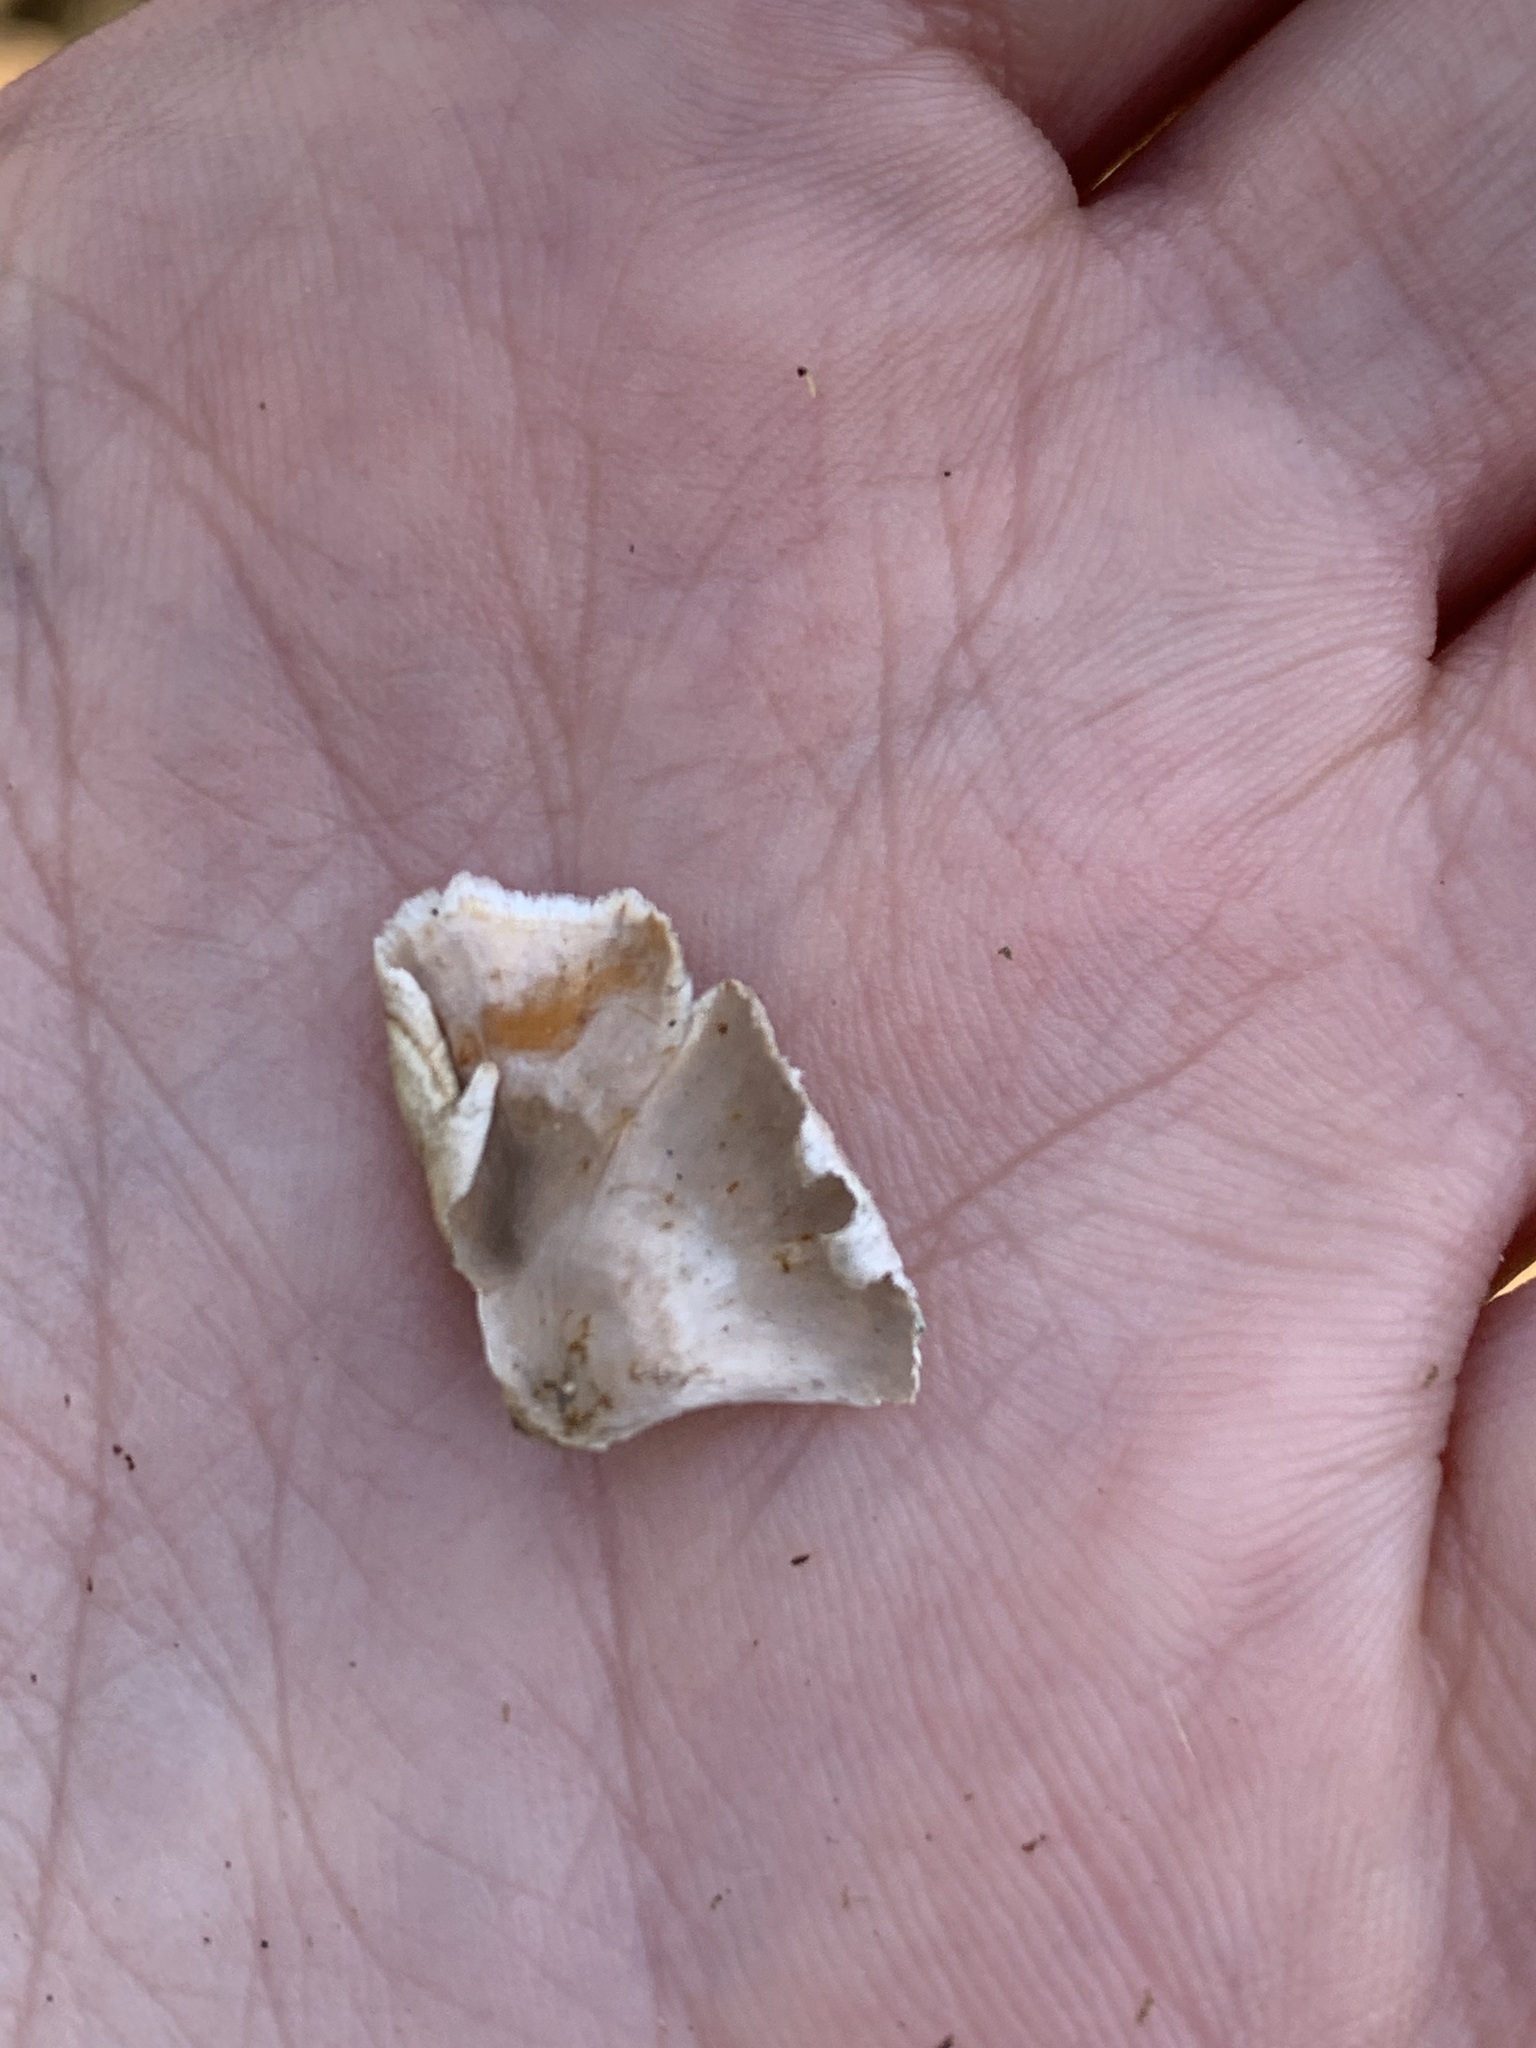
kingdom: Fungi
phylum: Basidiomycota
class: Agaricomycetes
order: Russulales
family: Stereaceae
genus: Stereum
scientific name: Stereum striatum
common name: Silky parchment
